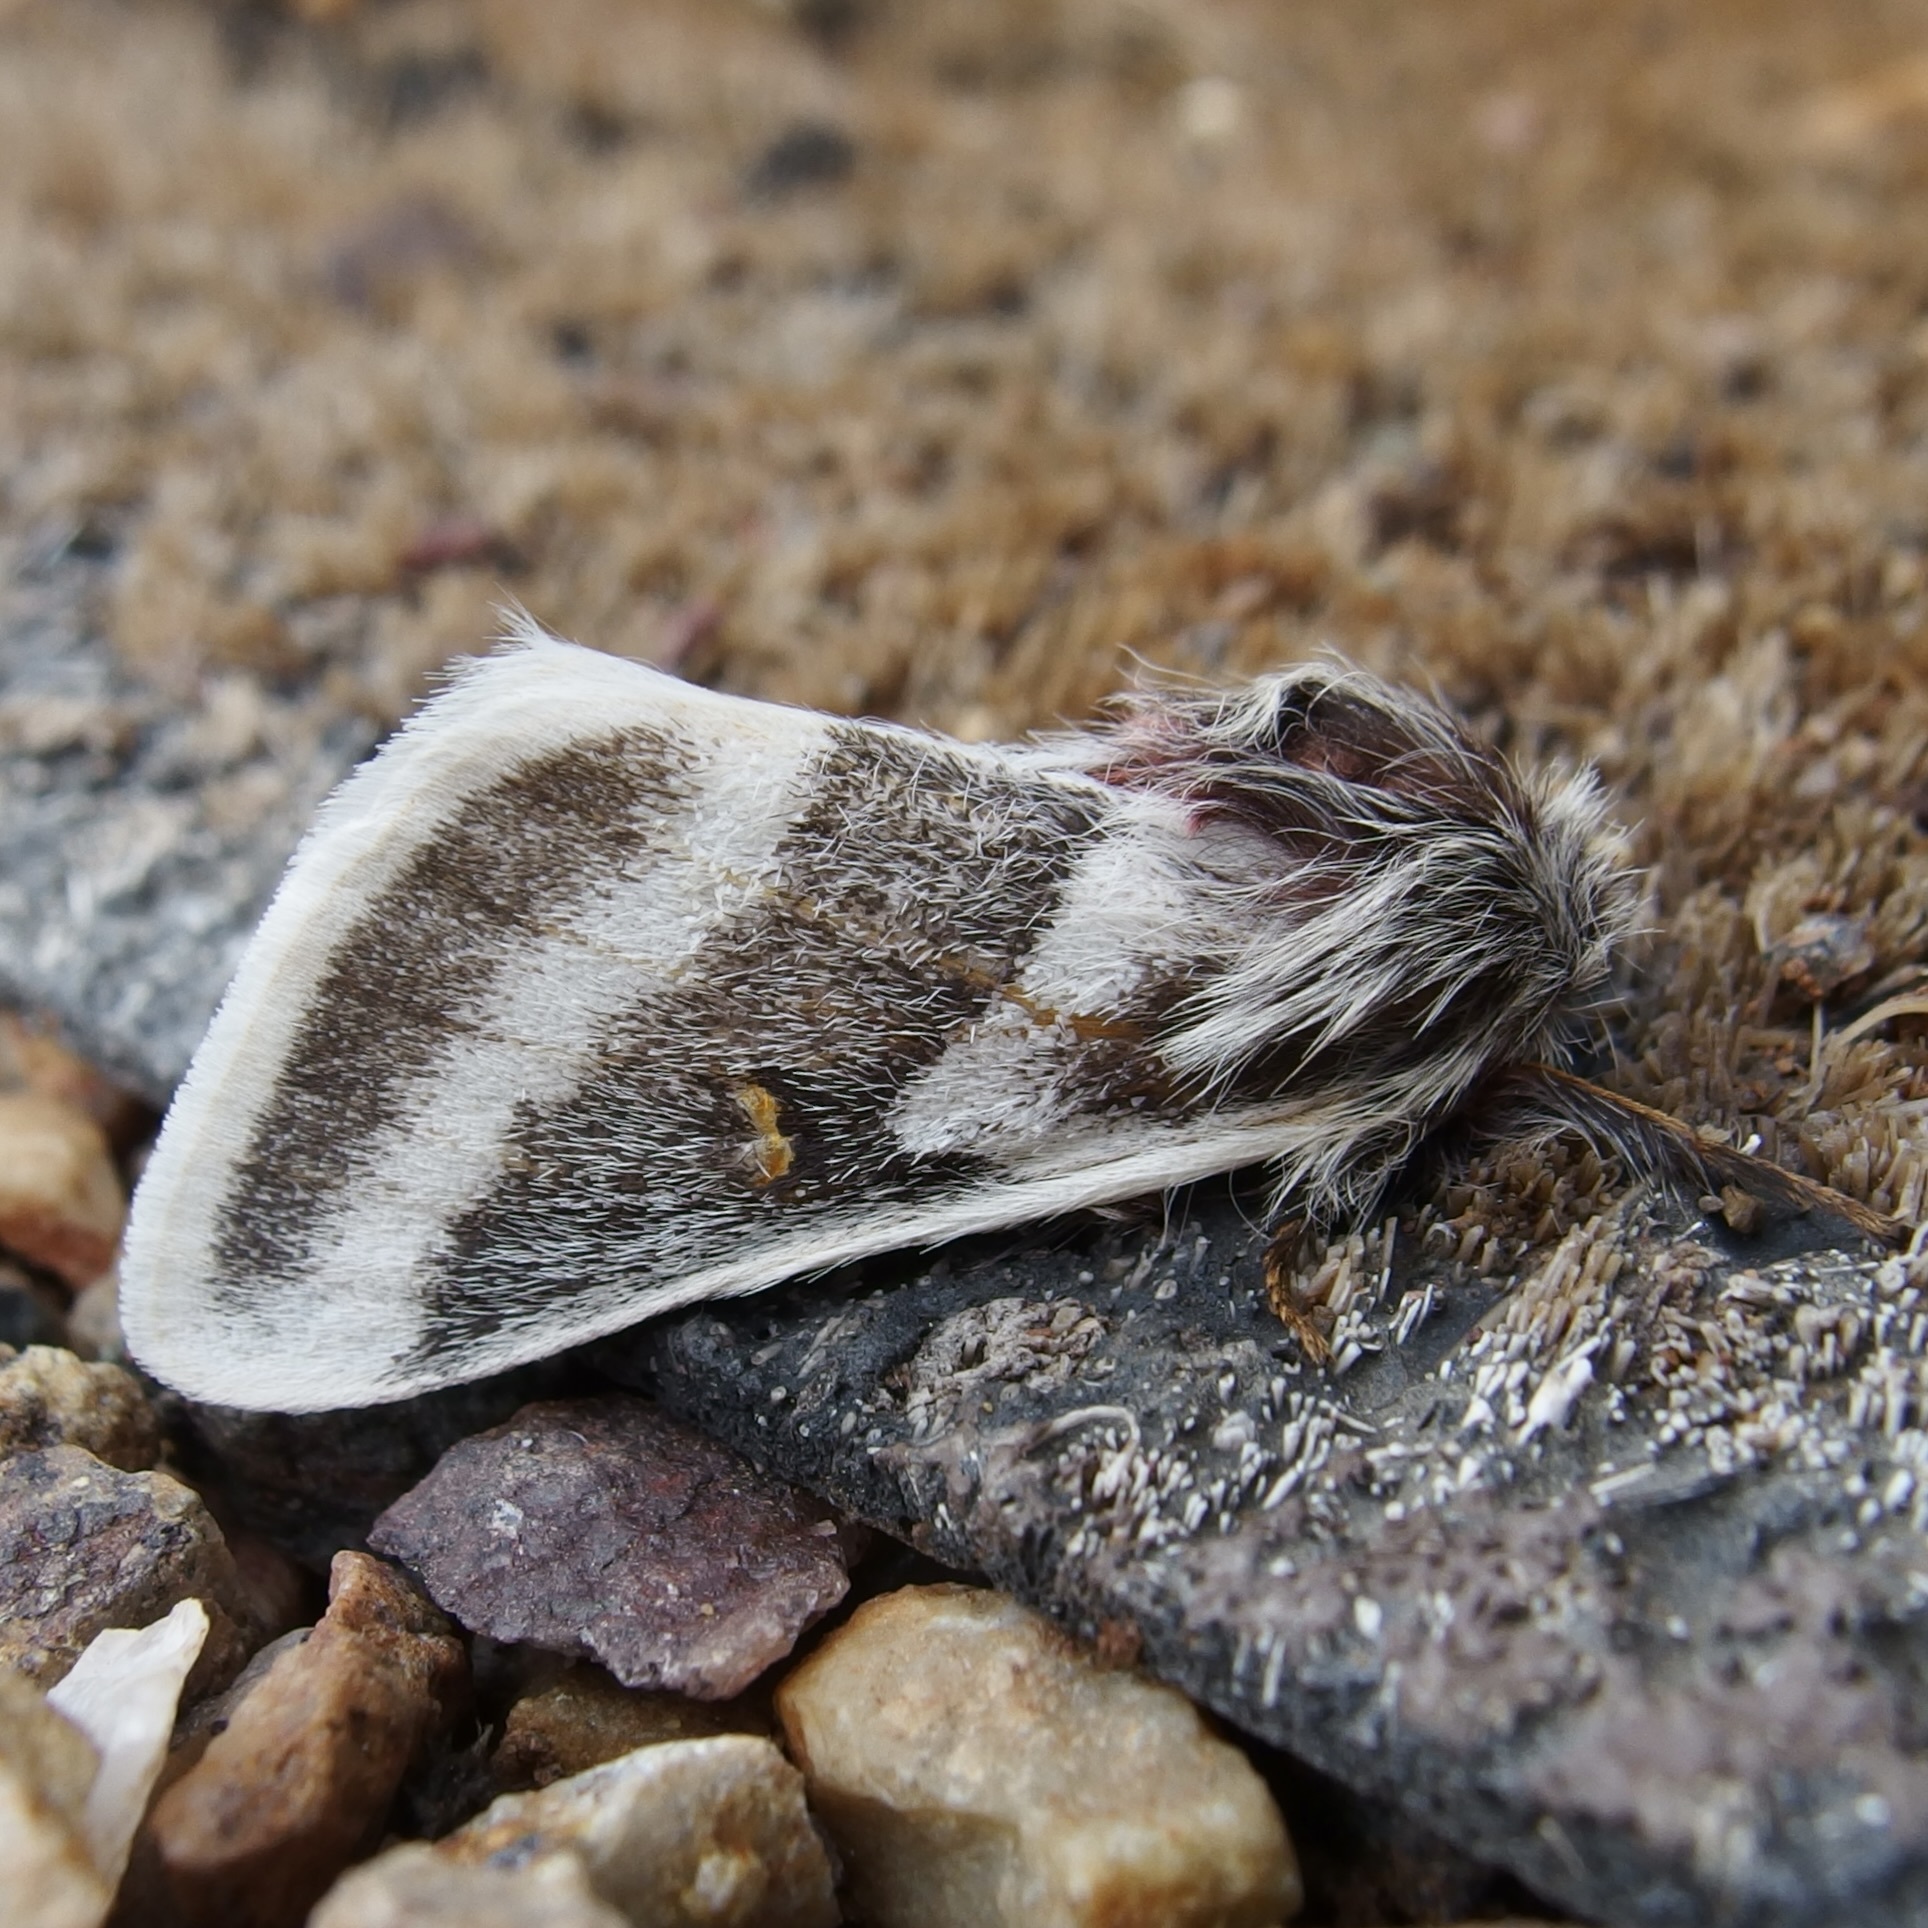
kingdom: Animalia
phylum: Arthropoda
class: Insecta
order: Lepidoptera
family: Saturniidae
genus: Hemileuca
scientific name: Hemileuca tricolor
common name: Tricolor buckmoth
